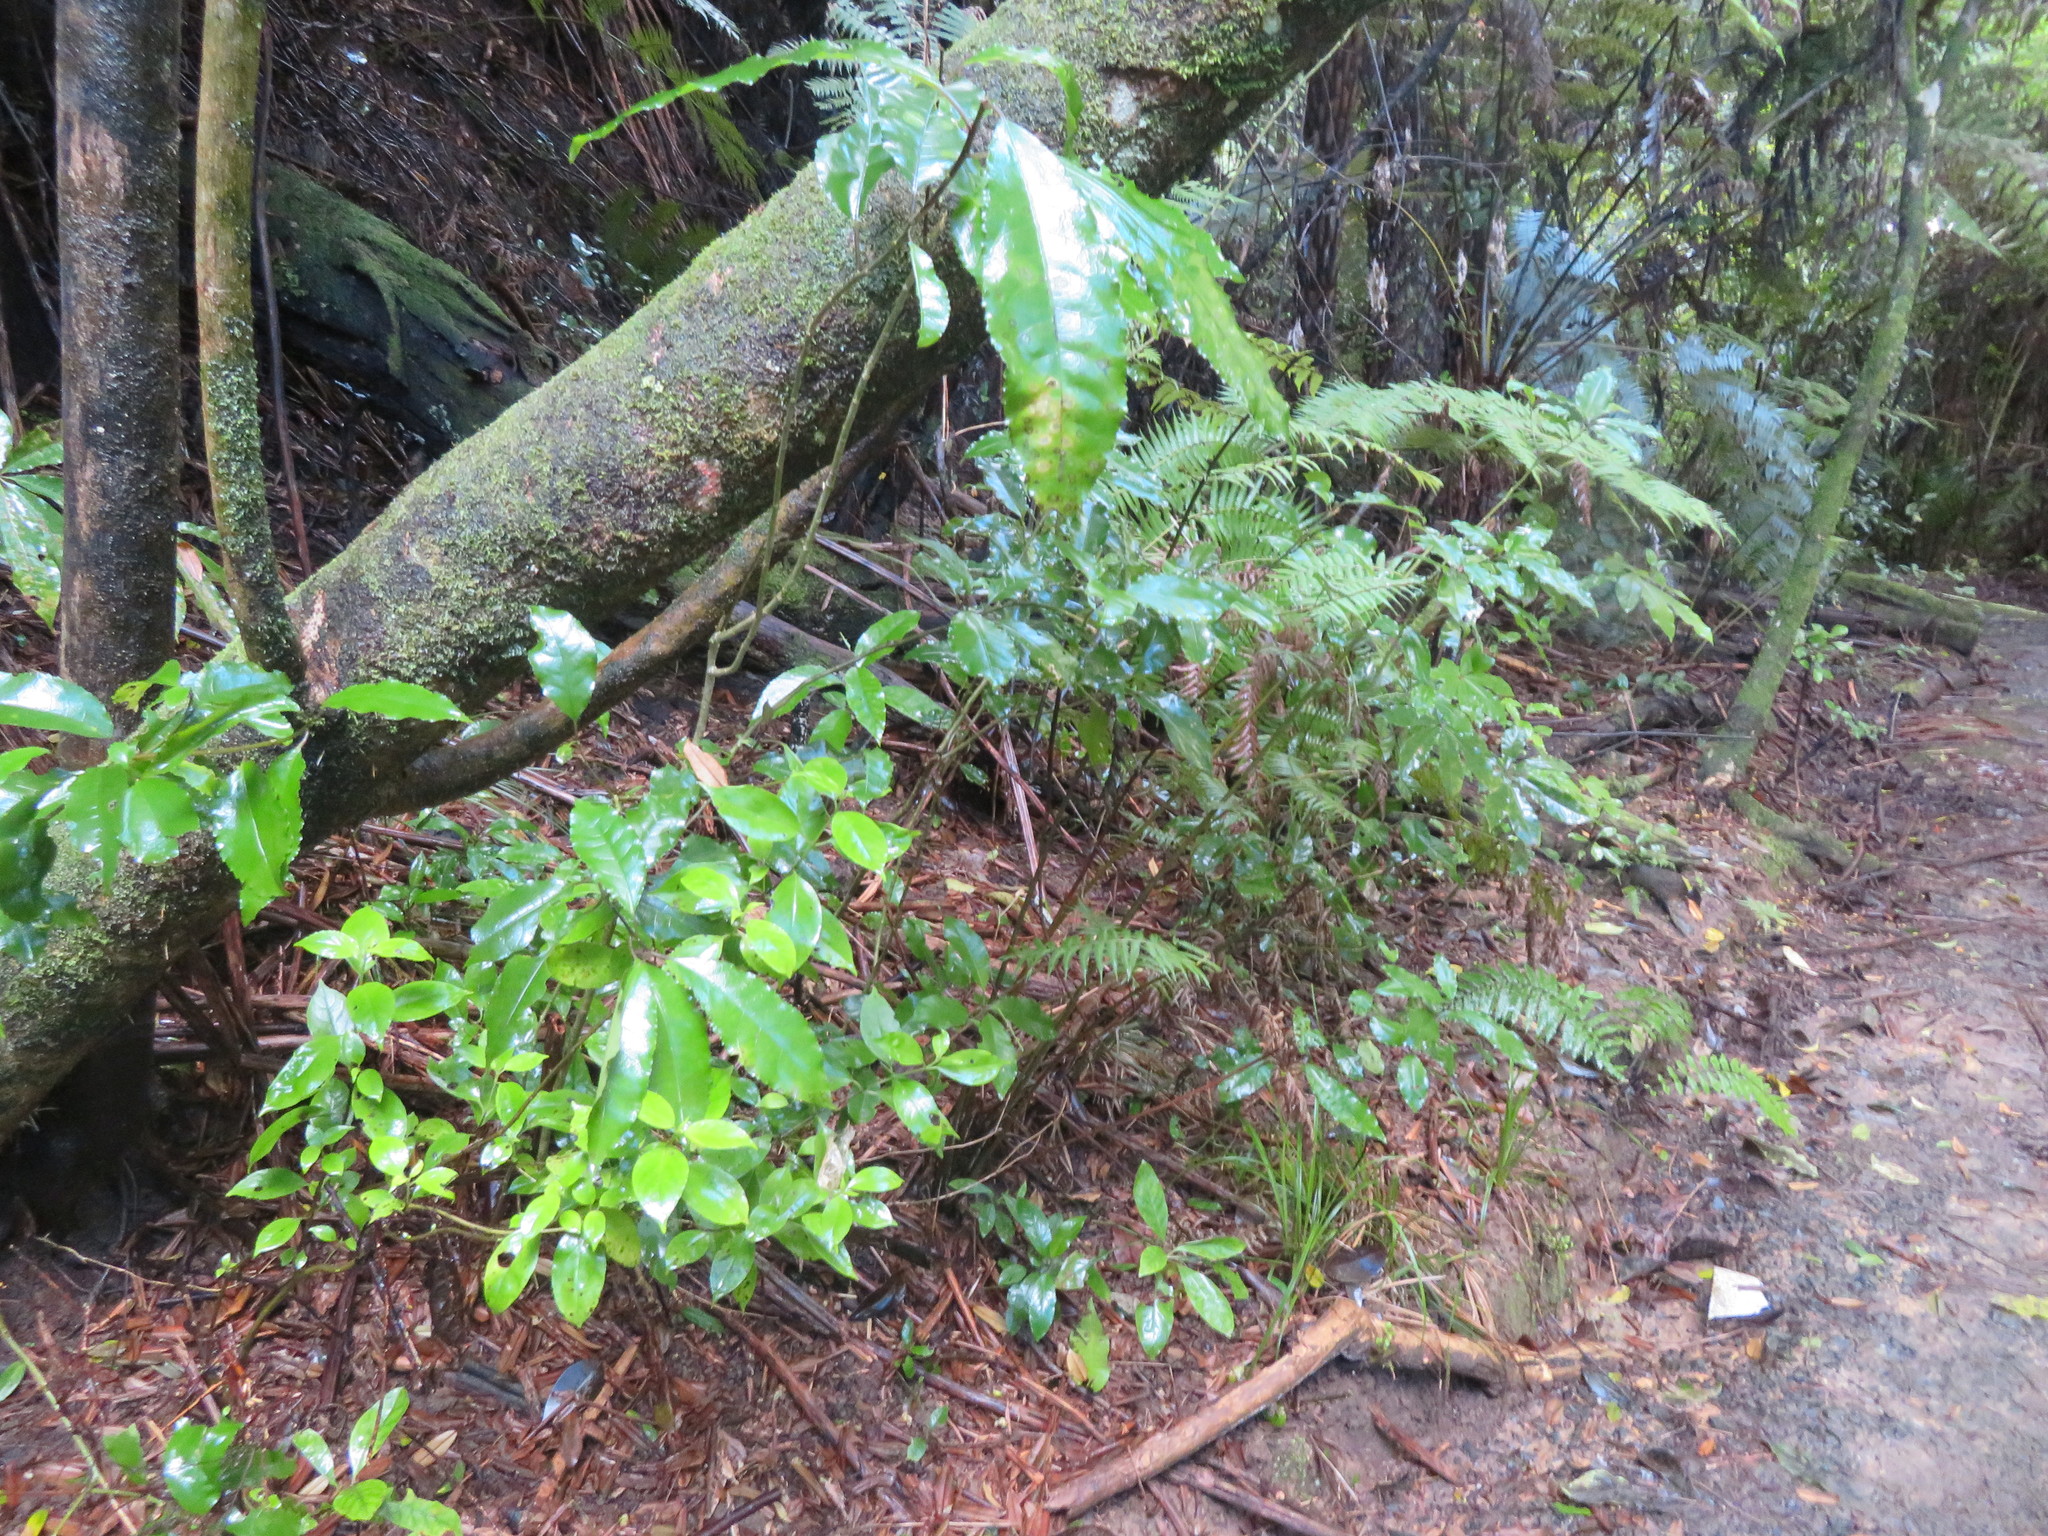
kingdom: Plantae
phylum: Tracheophyta
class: Magnoliopsida
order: Gentianales
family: Loganiaceae
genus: Geniostoma
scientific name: Geniostoma ligustrifolium
